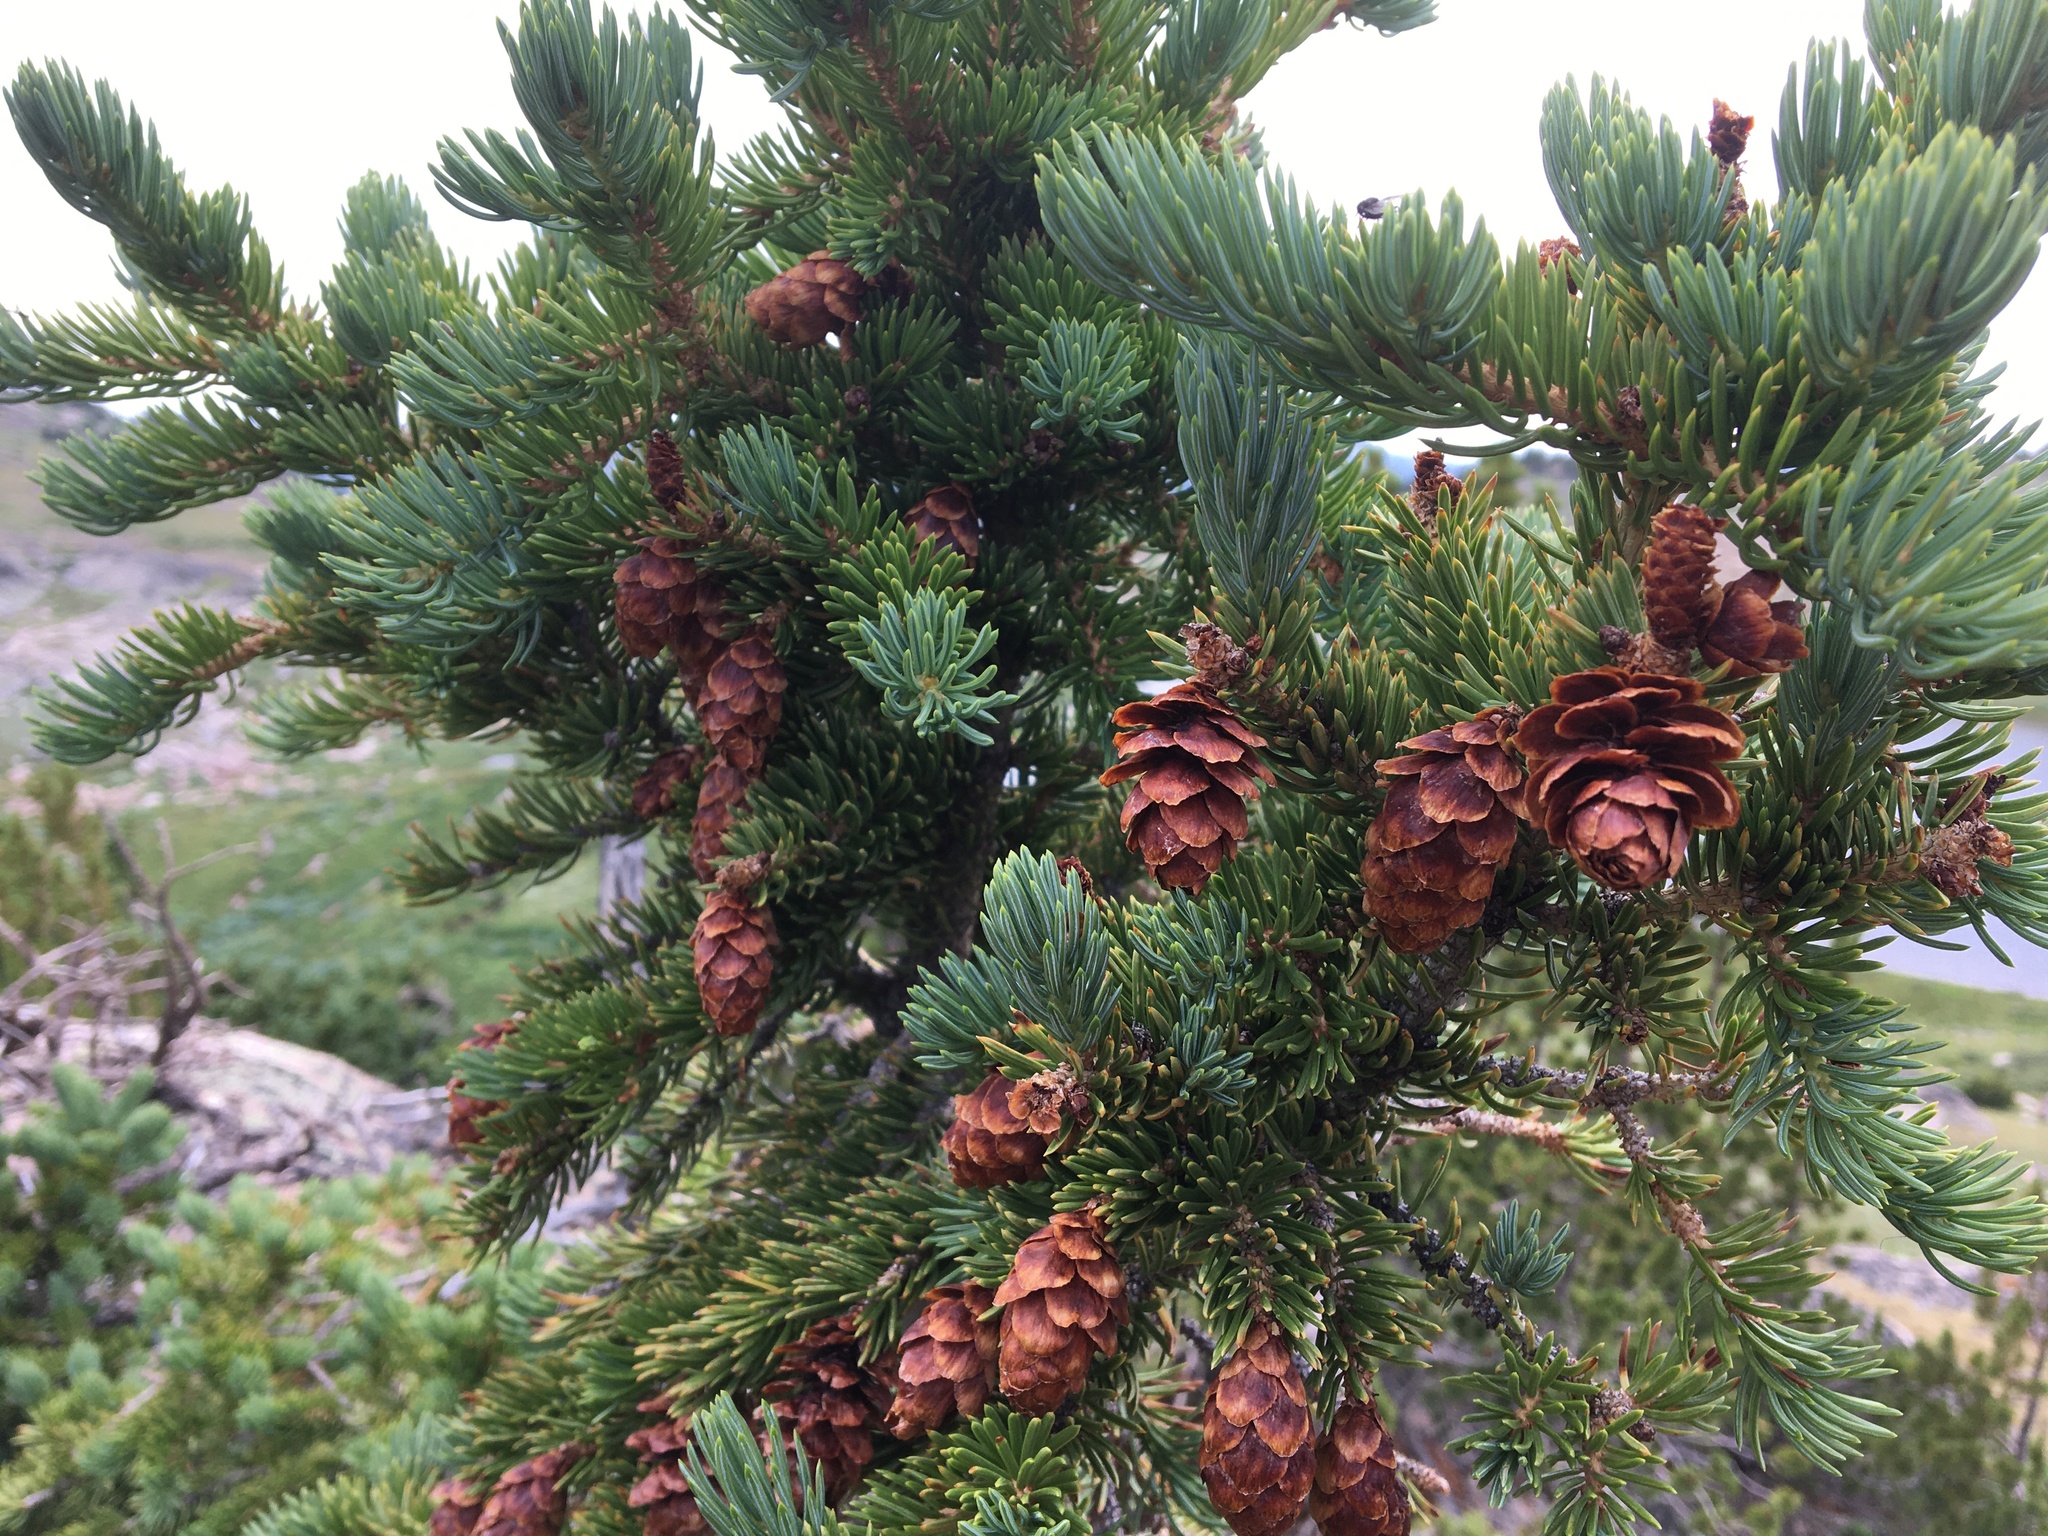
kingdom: Plantae
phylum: Tracheophyta
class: Pinopsida
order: Pinales
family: Pinaceae
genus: Picea
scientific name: Picea engelmannii
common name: Engelmann spruce
